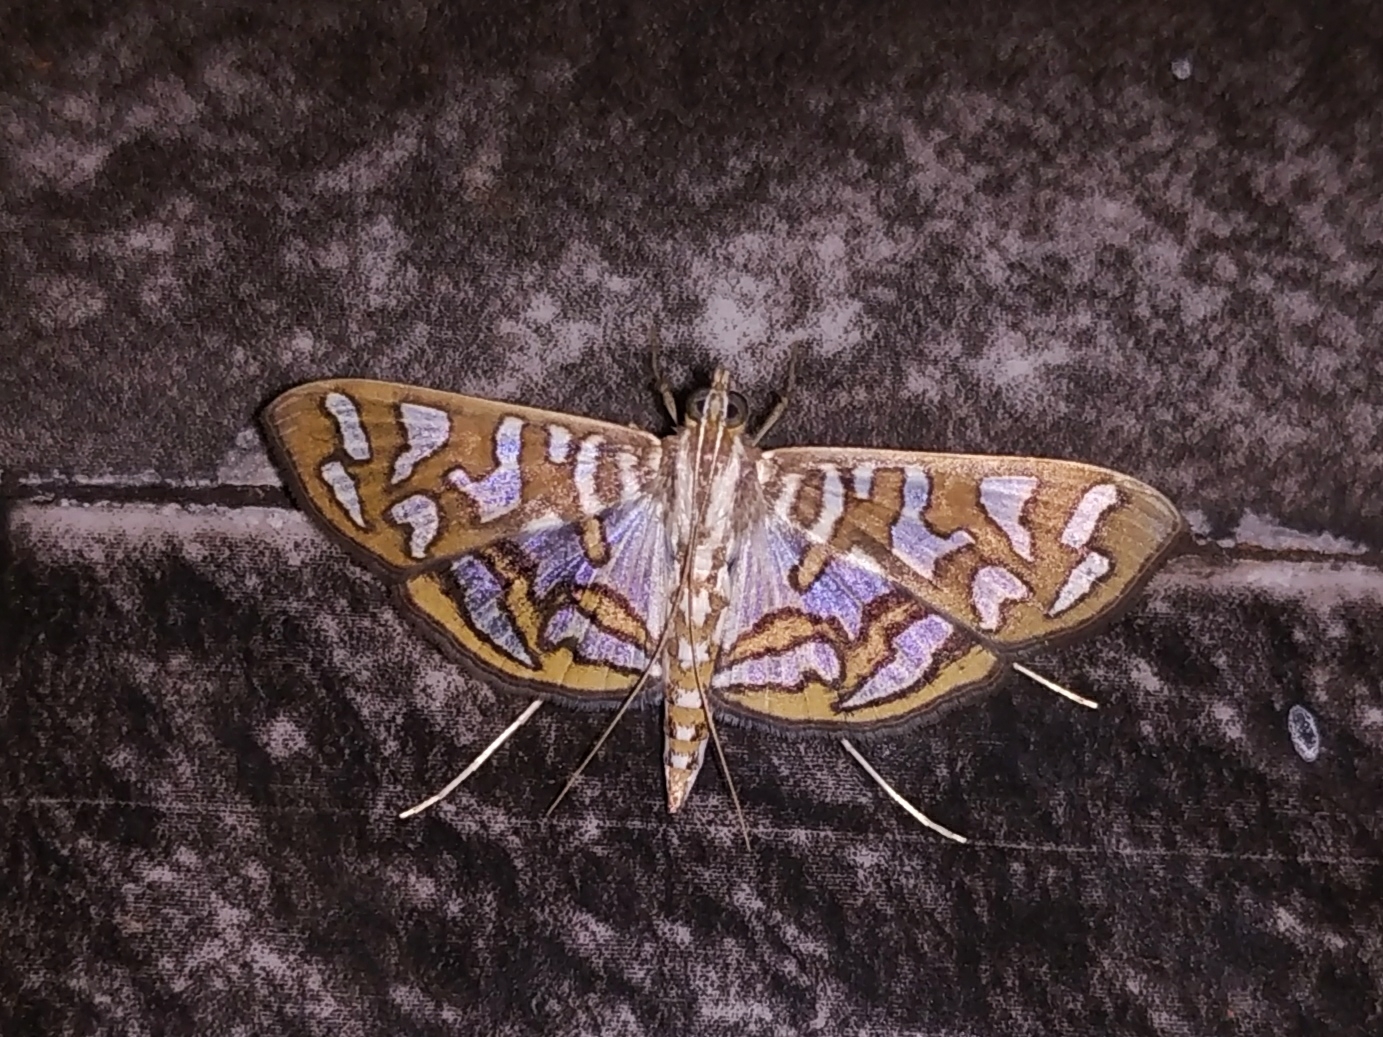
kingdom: Animalia
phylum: Arthropoda
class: Insecta
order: Lepidoptera
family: Crambidae
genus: Nausinoe
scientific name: Nausinoe perspectata
